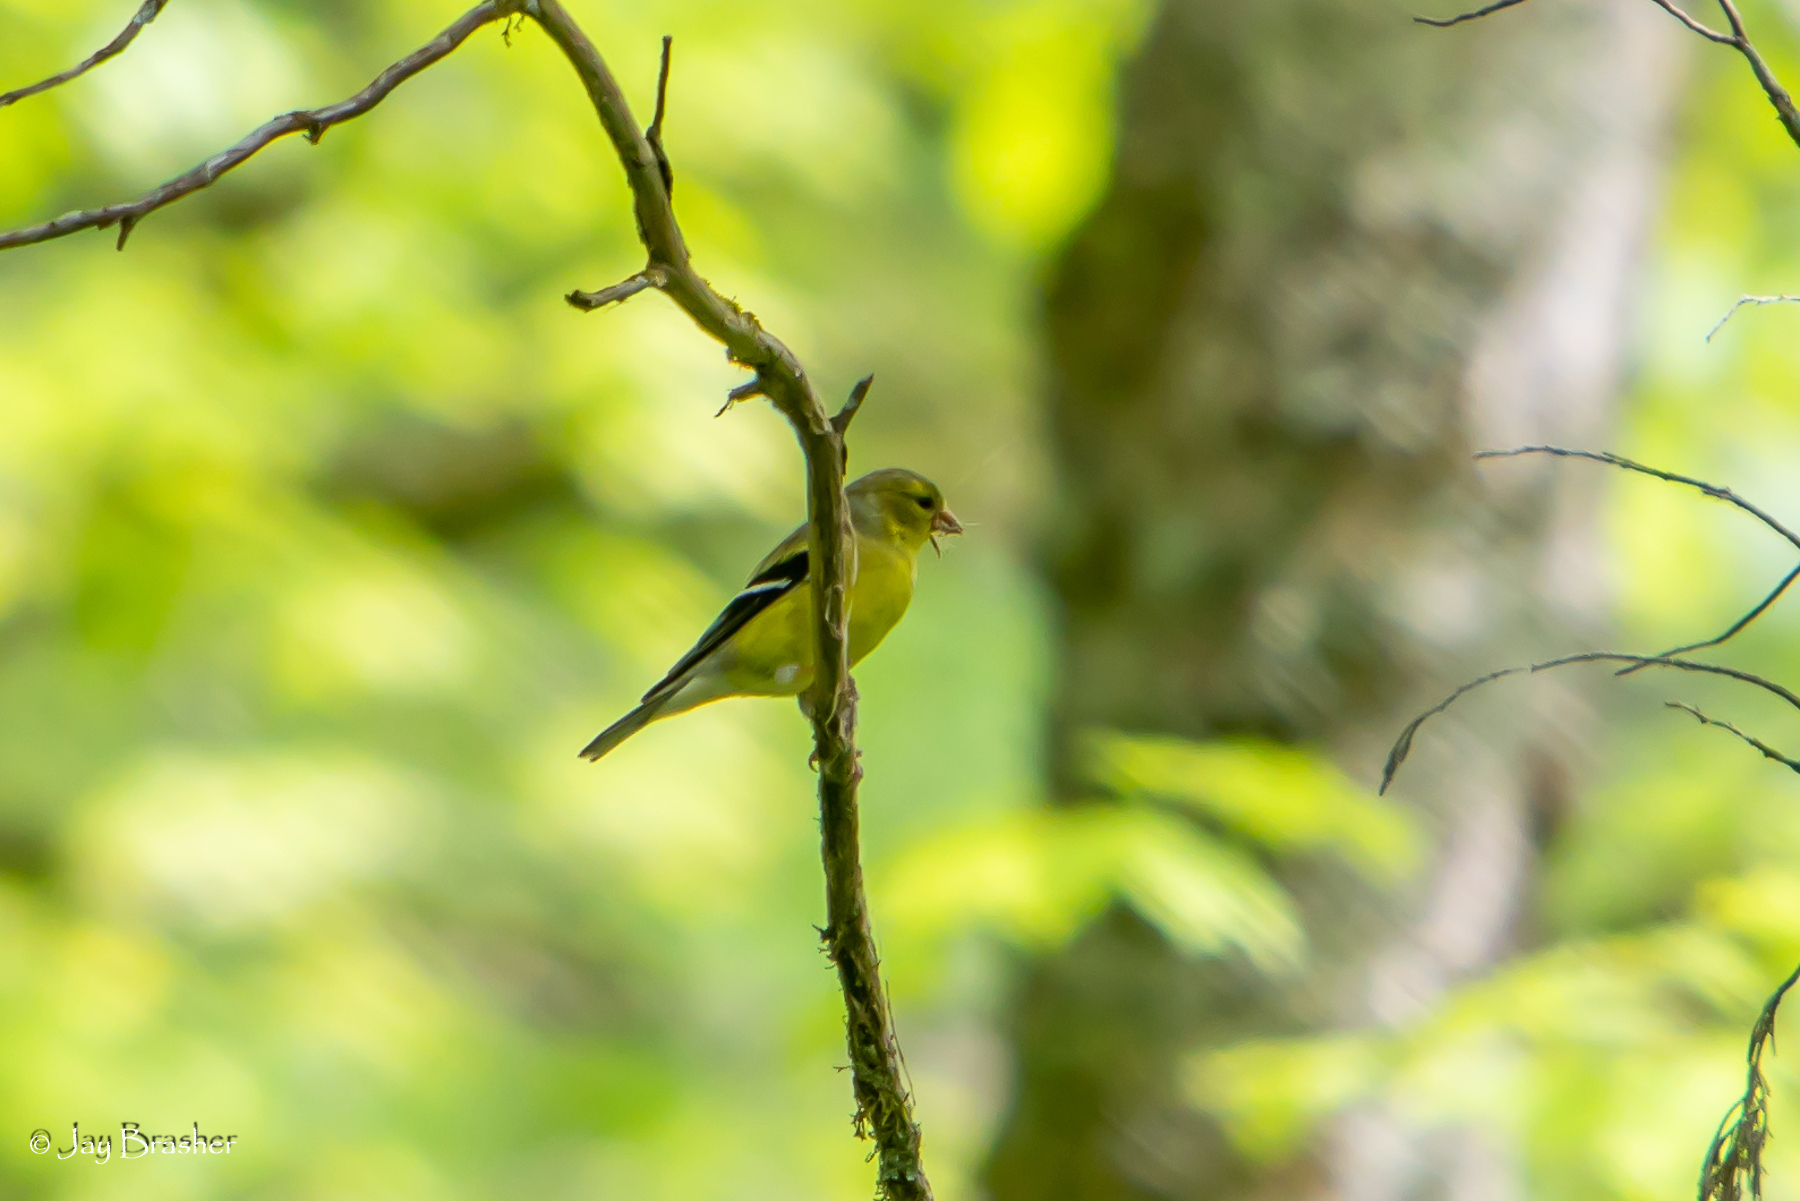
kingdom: Animalia
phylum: Chordata
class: Aves
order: Passeriformes
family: Fringillidae
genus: Spinus
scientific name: Spinus tristis
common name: American goldfinch
